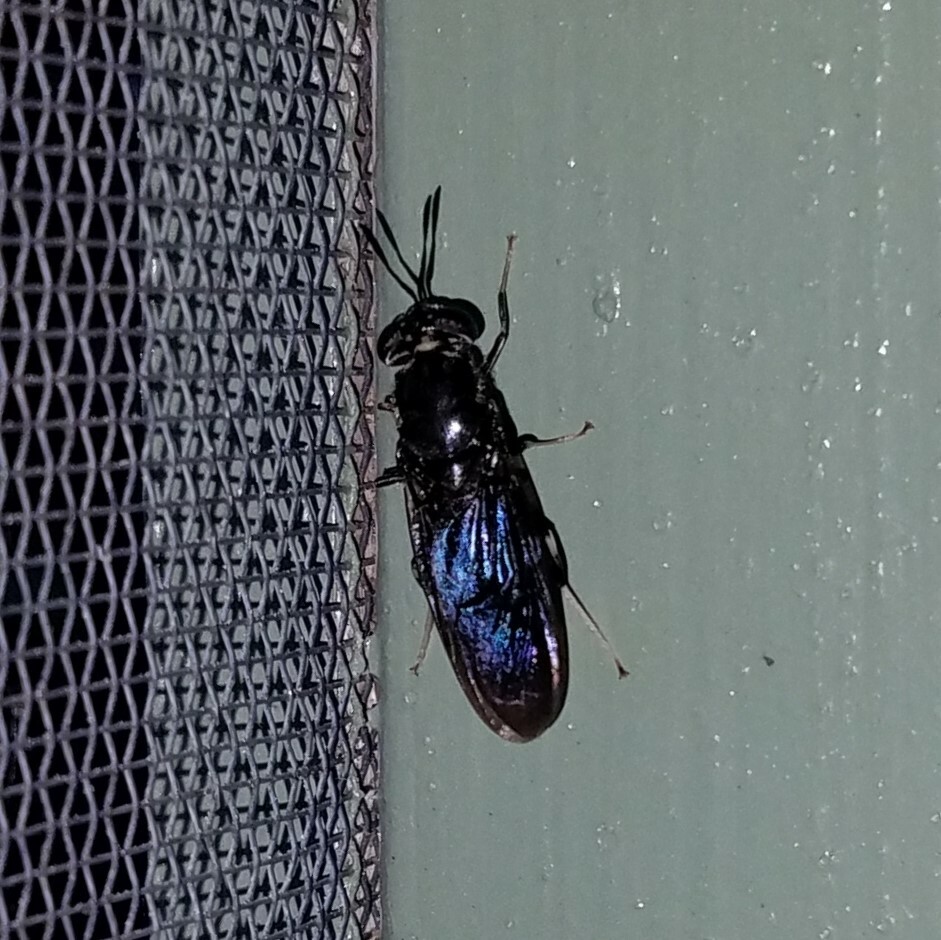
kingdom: Animalia
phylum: Arthropoda
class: Insecta
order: Diptera
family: Stratiomyidae
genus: Hermetia
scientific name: Hermetia illucens
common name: Black soldier fly
